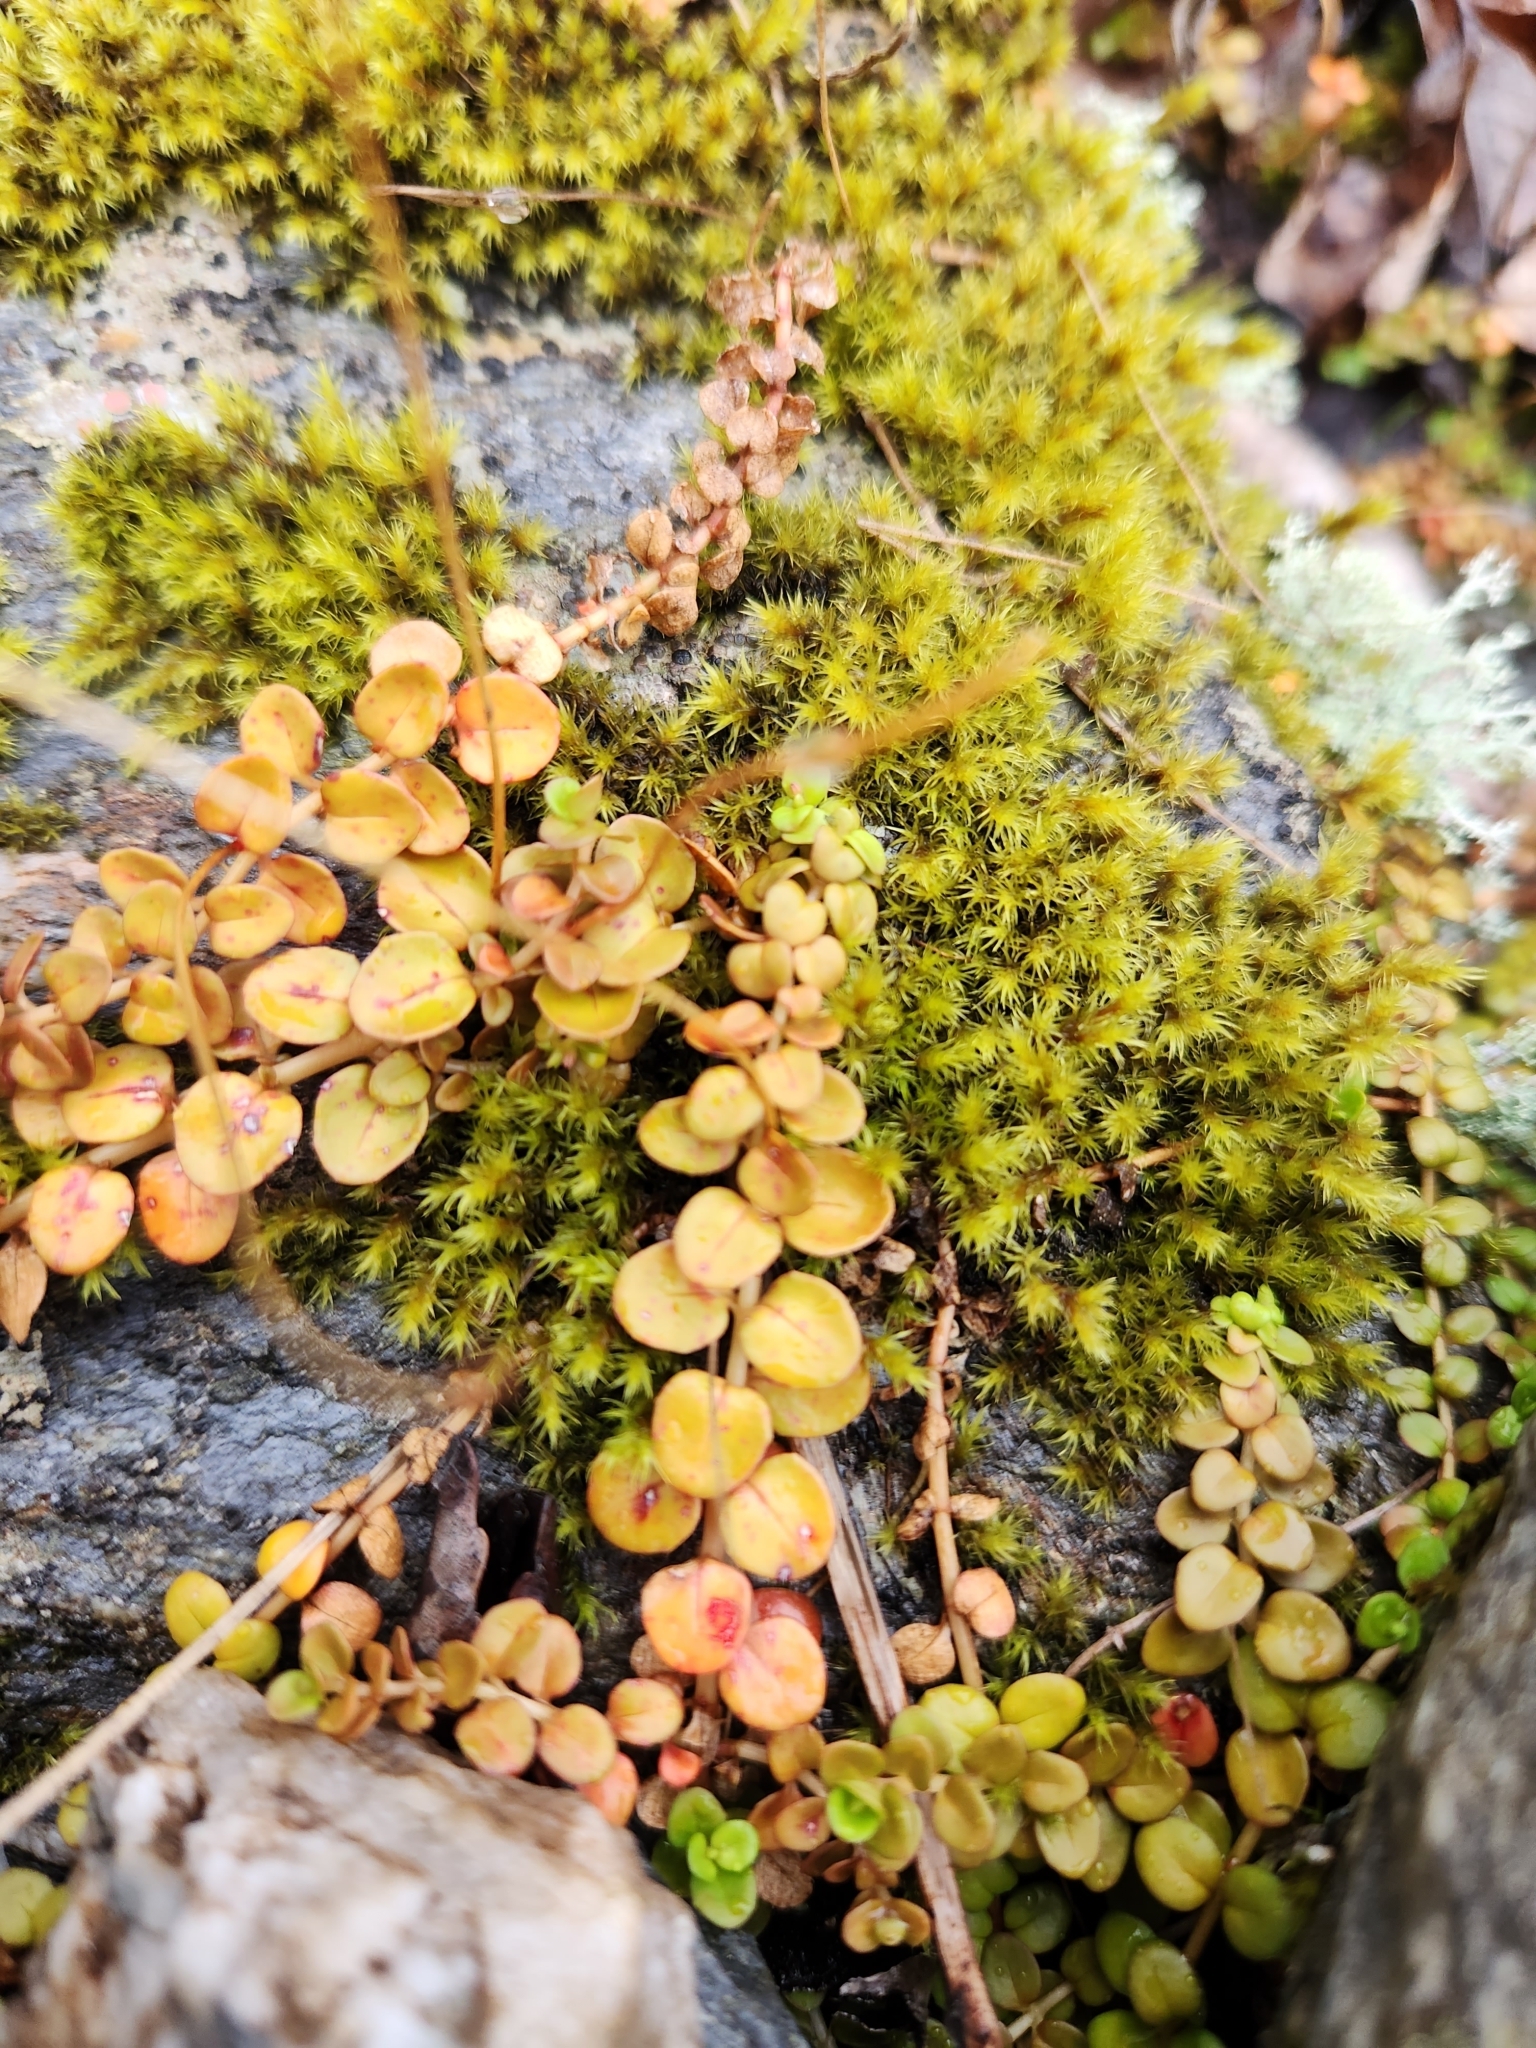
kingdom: Plantae
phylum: Tracheophyta
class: Magnoliopsida
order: Myrtales
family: Onagraceae
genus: Epilobium
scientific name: Epilobium brunnescens
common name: New zealand willowherb
